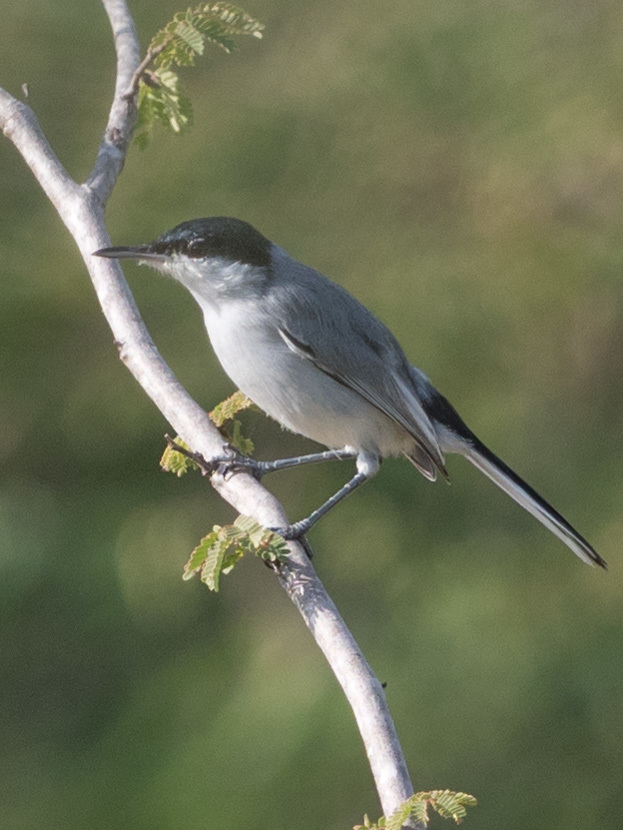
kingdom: Animalia
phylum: Chordata
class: Aves
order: Passeriformes
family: Polioptilidae
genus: Polioptila
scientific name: Polioptila plumbea
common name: Tropical gnatcatcher
